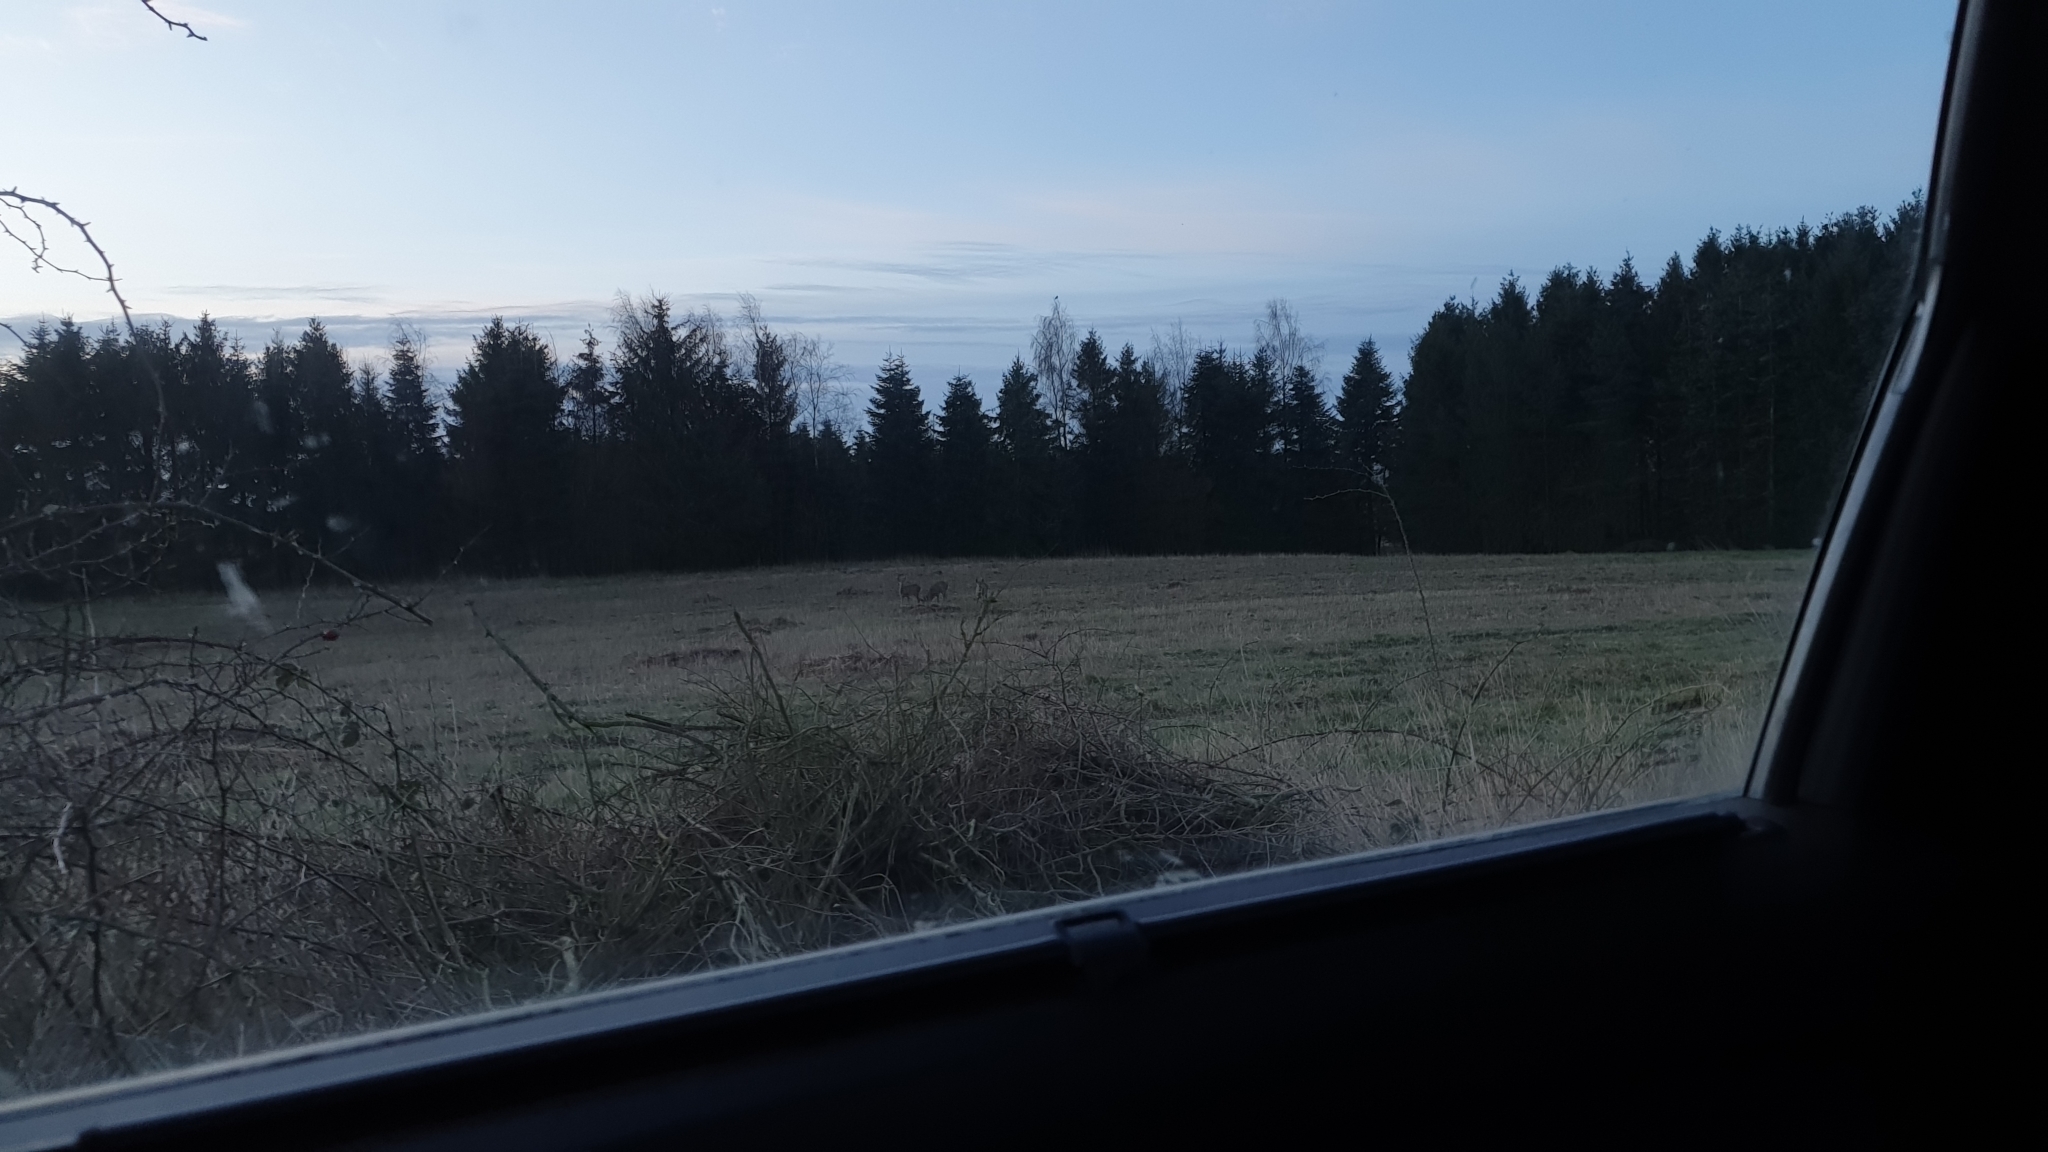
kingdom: Animalia
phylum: Chordata
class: Mammalia
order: Artiodactyla
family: Cervidae
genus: Capreolus
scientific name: Capreolus capreolus
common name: Western roe deer
